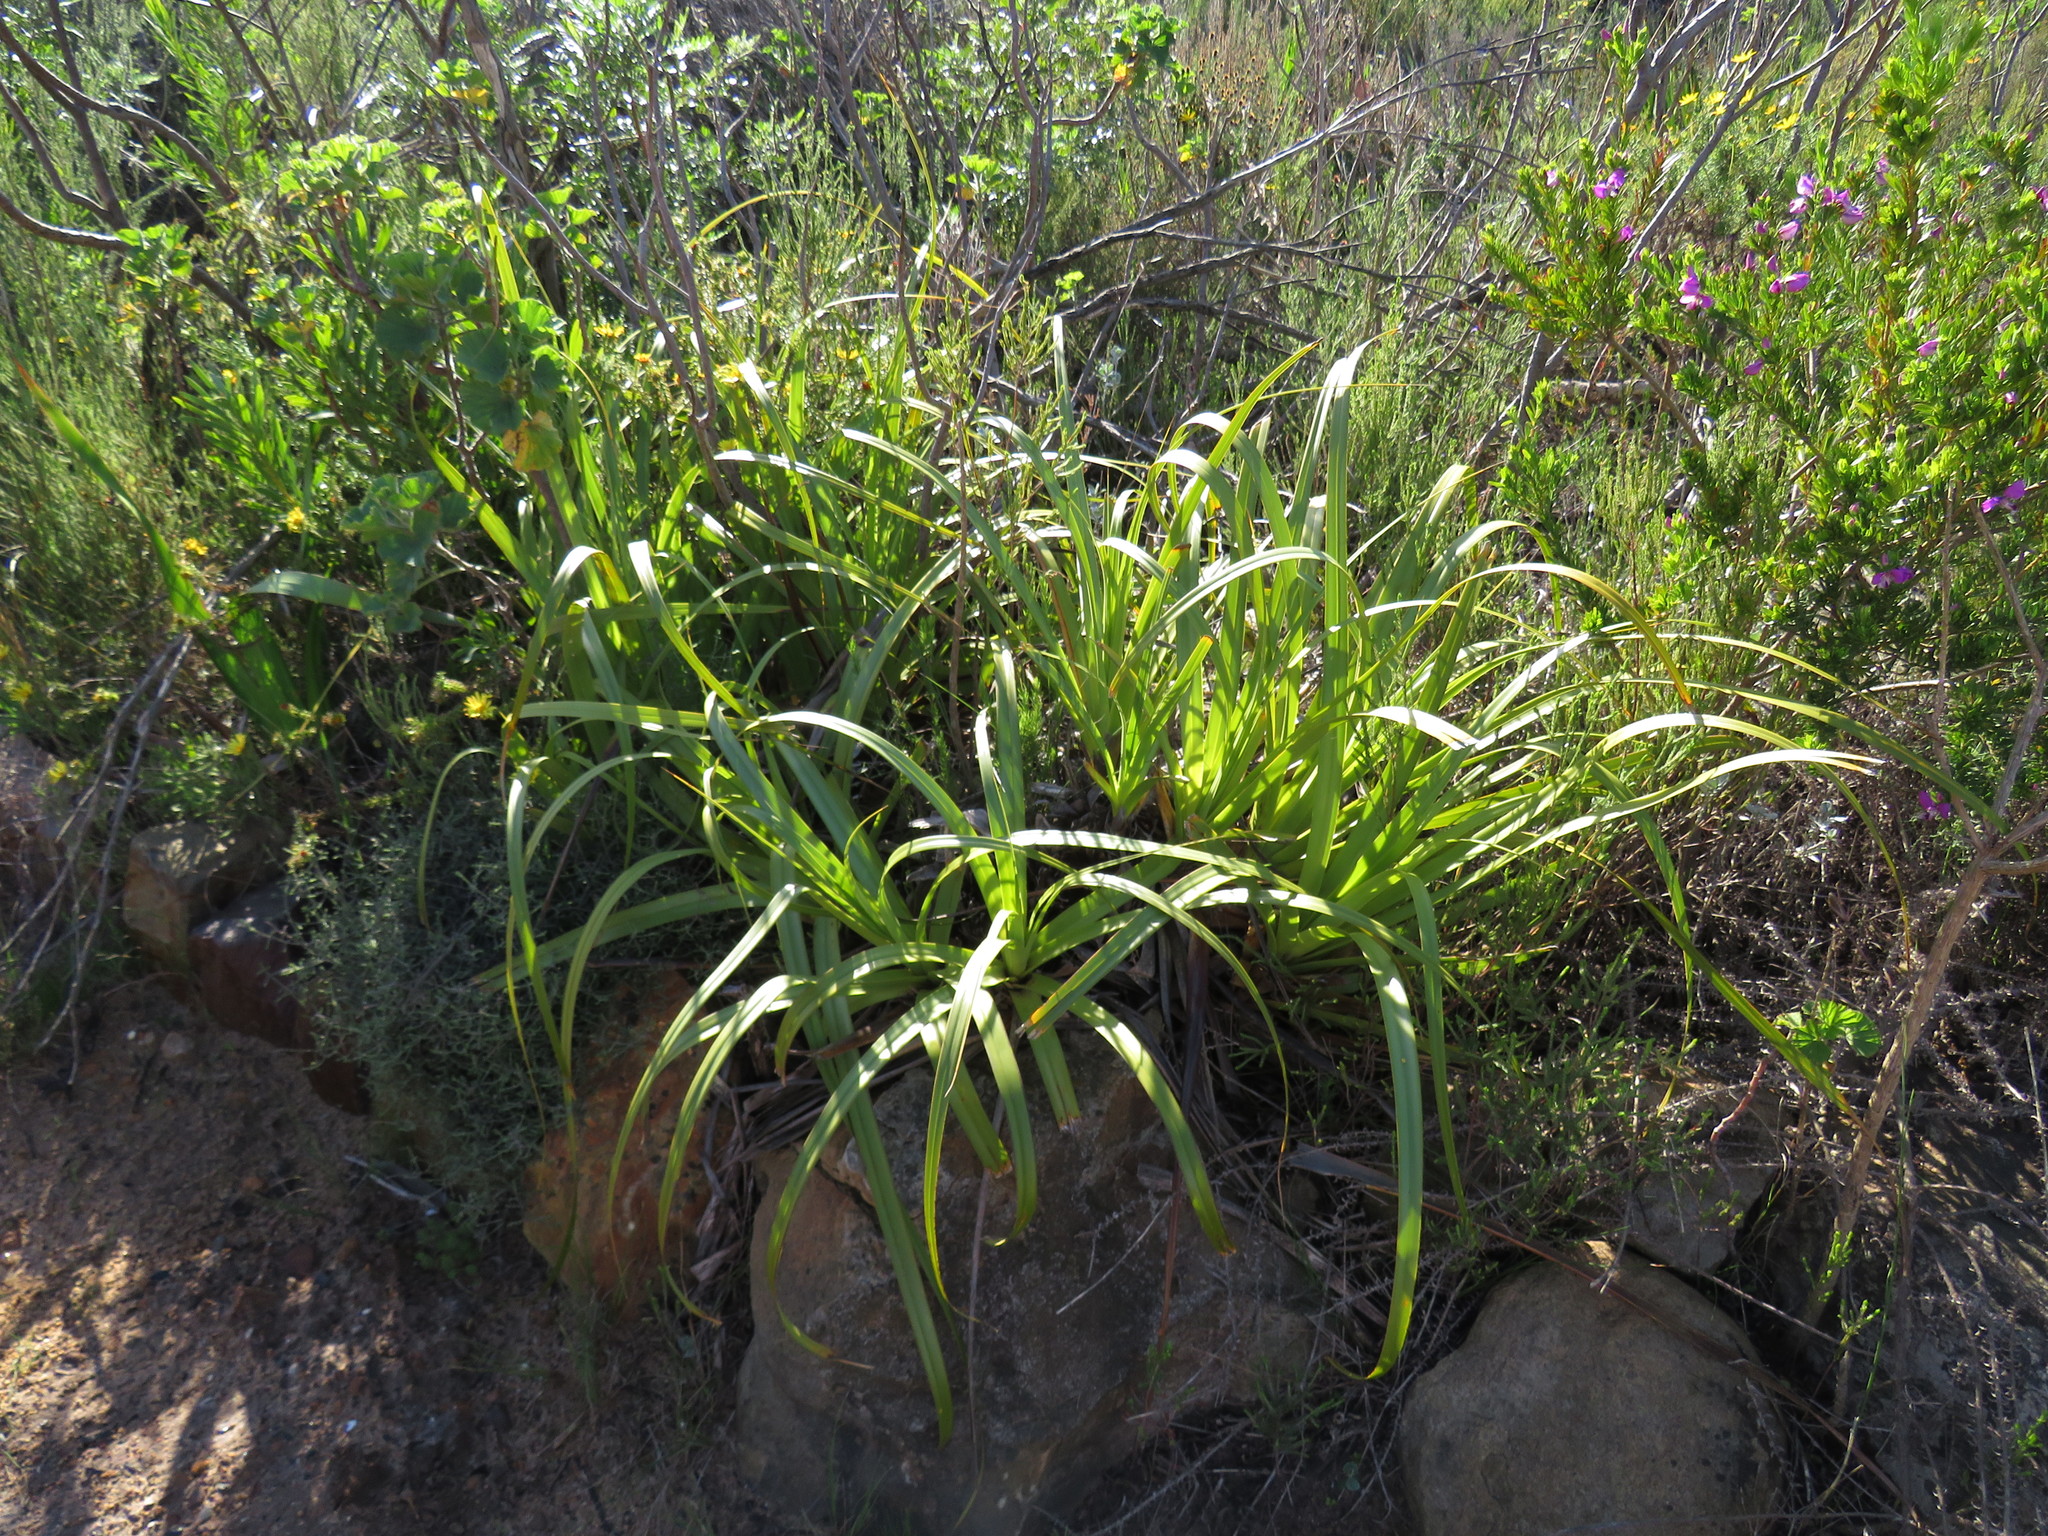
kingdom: Plantae
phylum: Tracheophyta
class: Liliopsida
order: Poales
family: Cyperaceae
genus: Tetraria
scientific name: Tetraria thermalis
